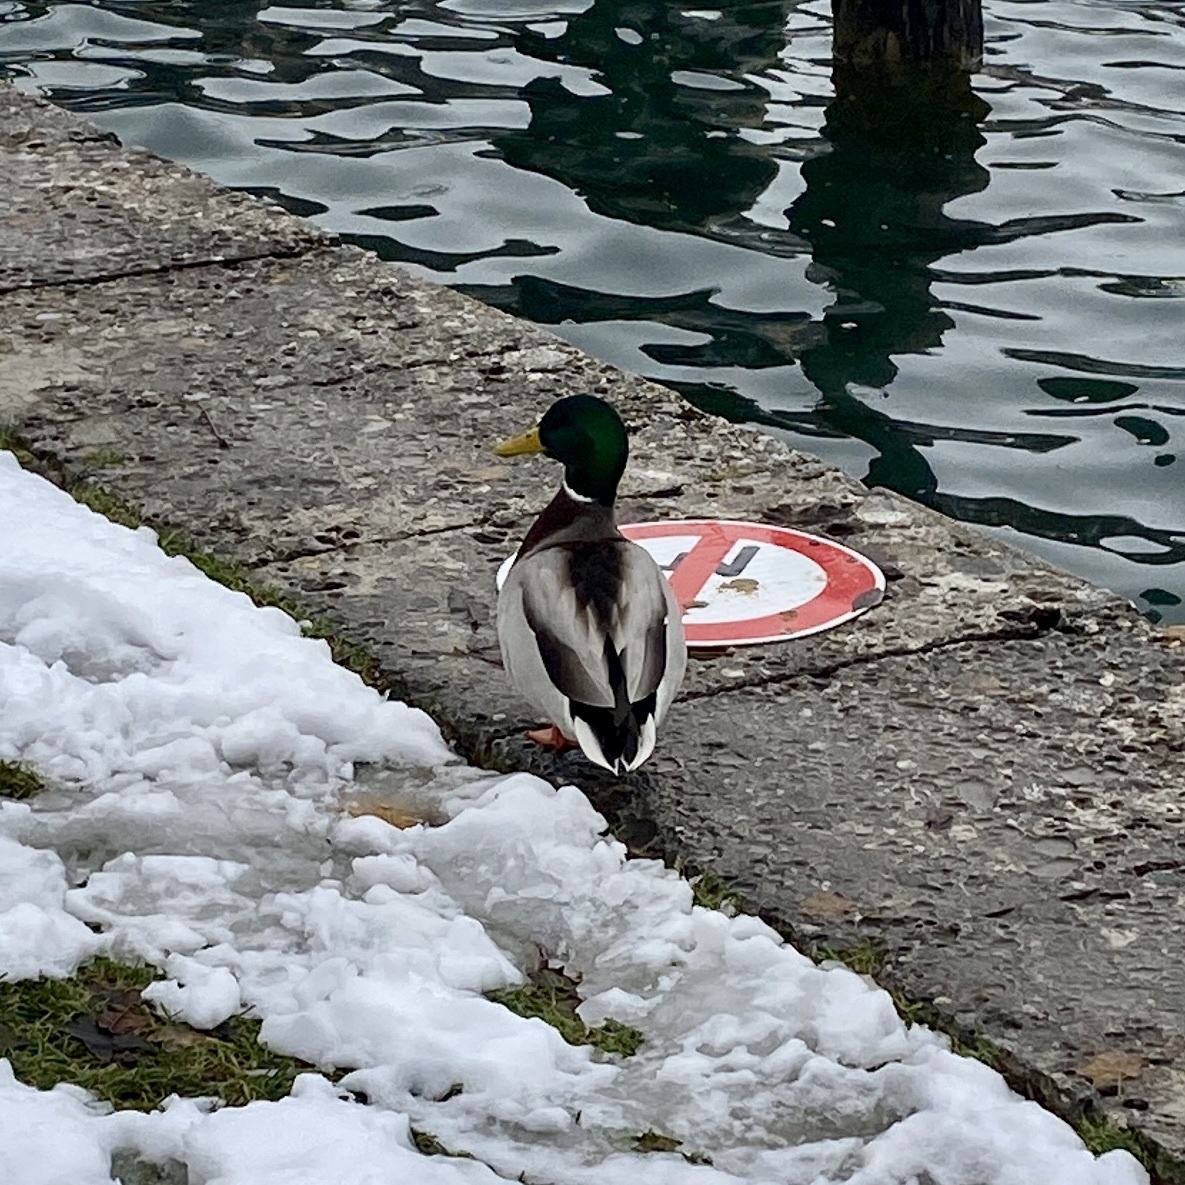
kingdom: Animalia
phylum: Chordata
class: Aves
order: Anseriformes
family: Anatidae
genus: Anas
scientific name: Anas platyrhynchos
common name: Mallard
